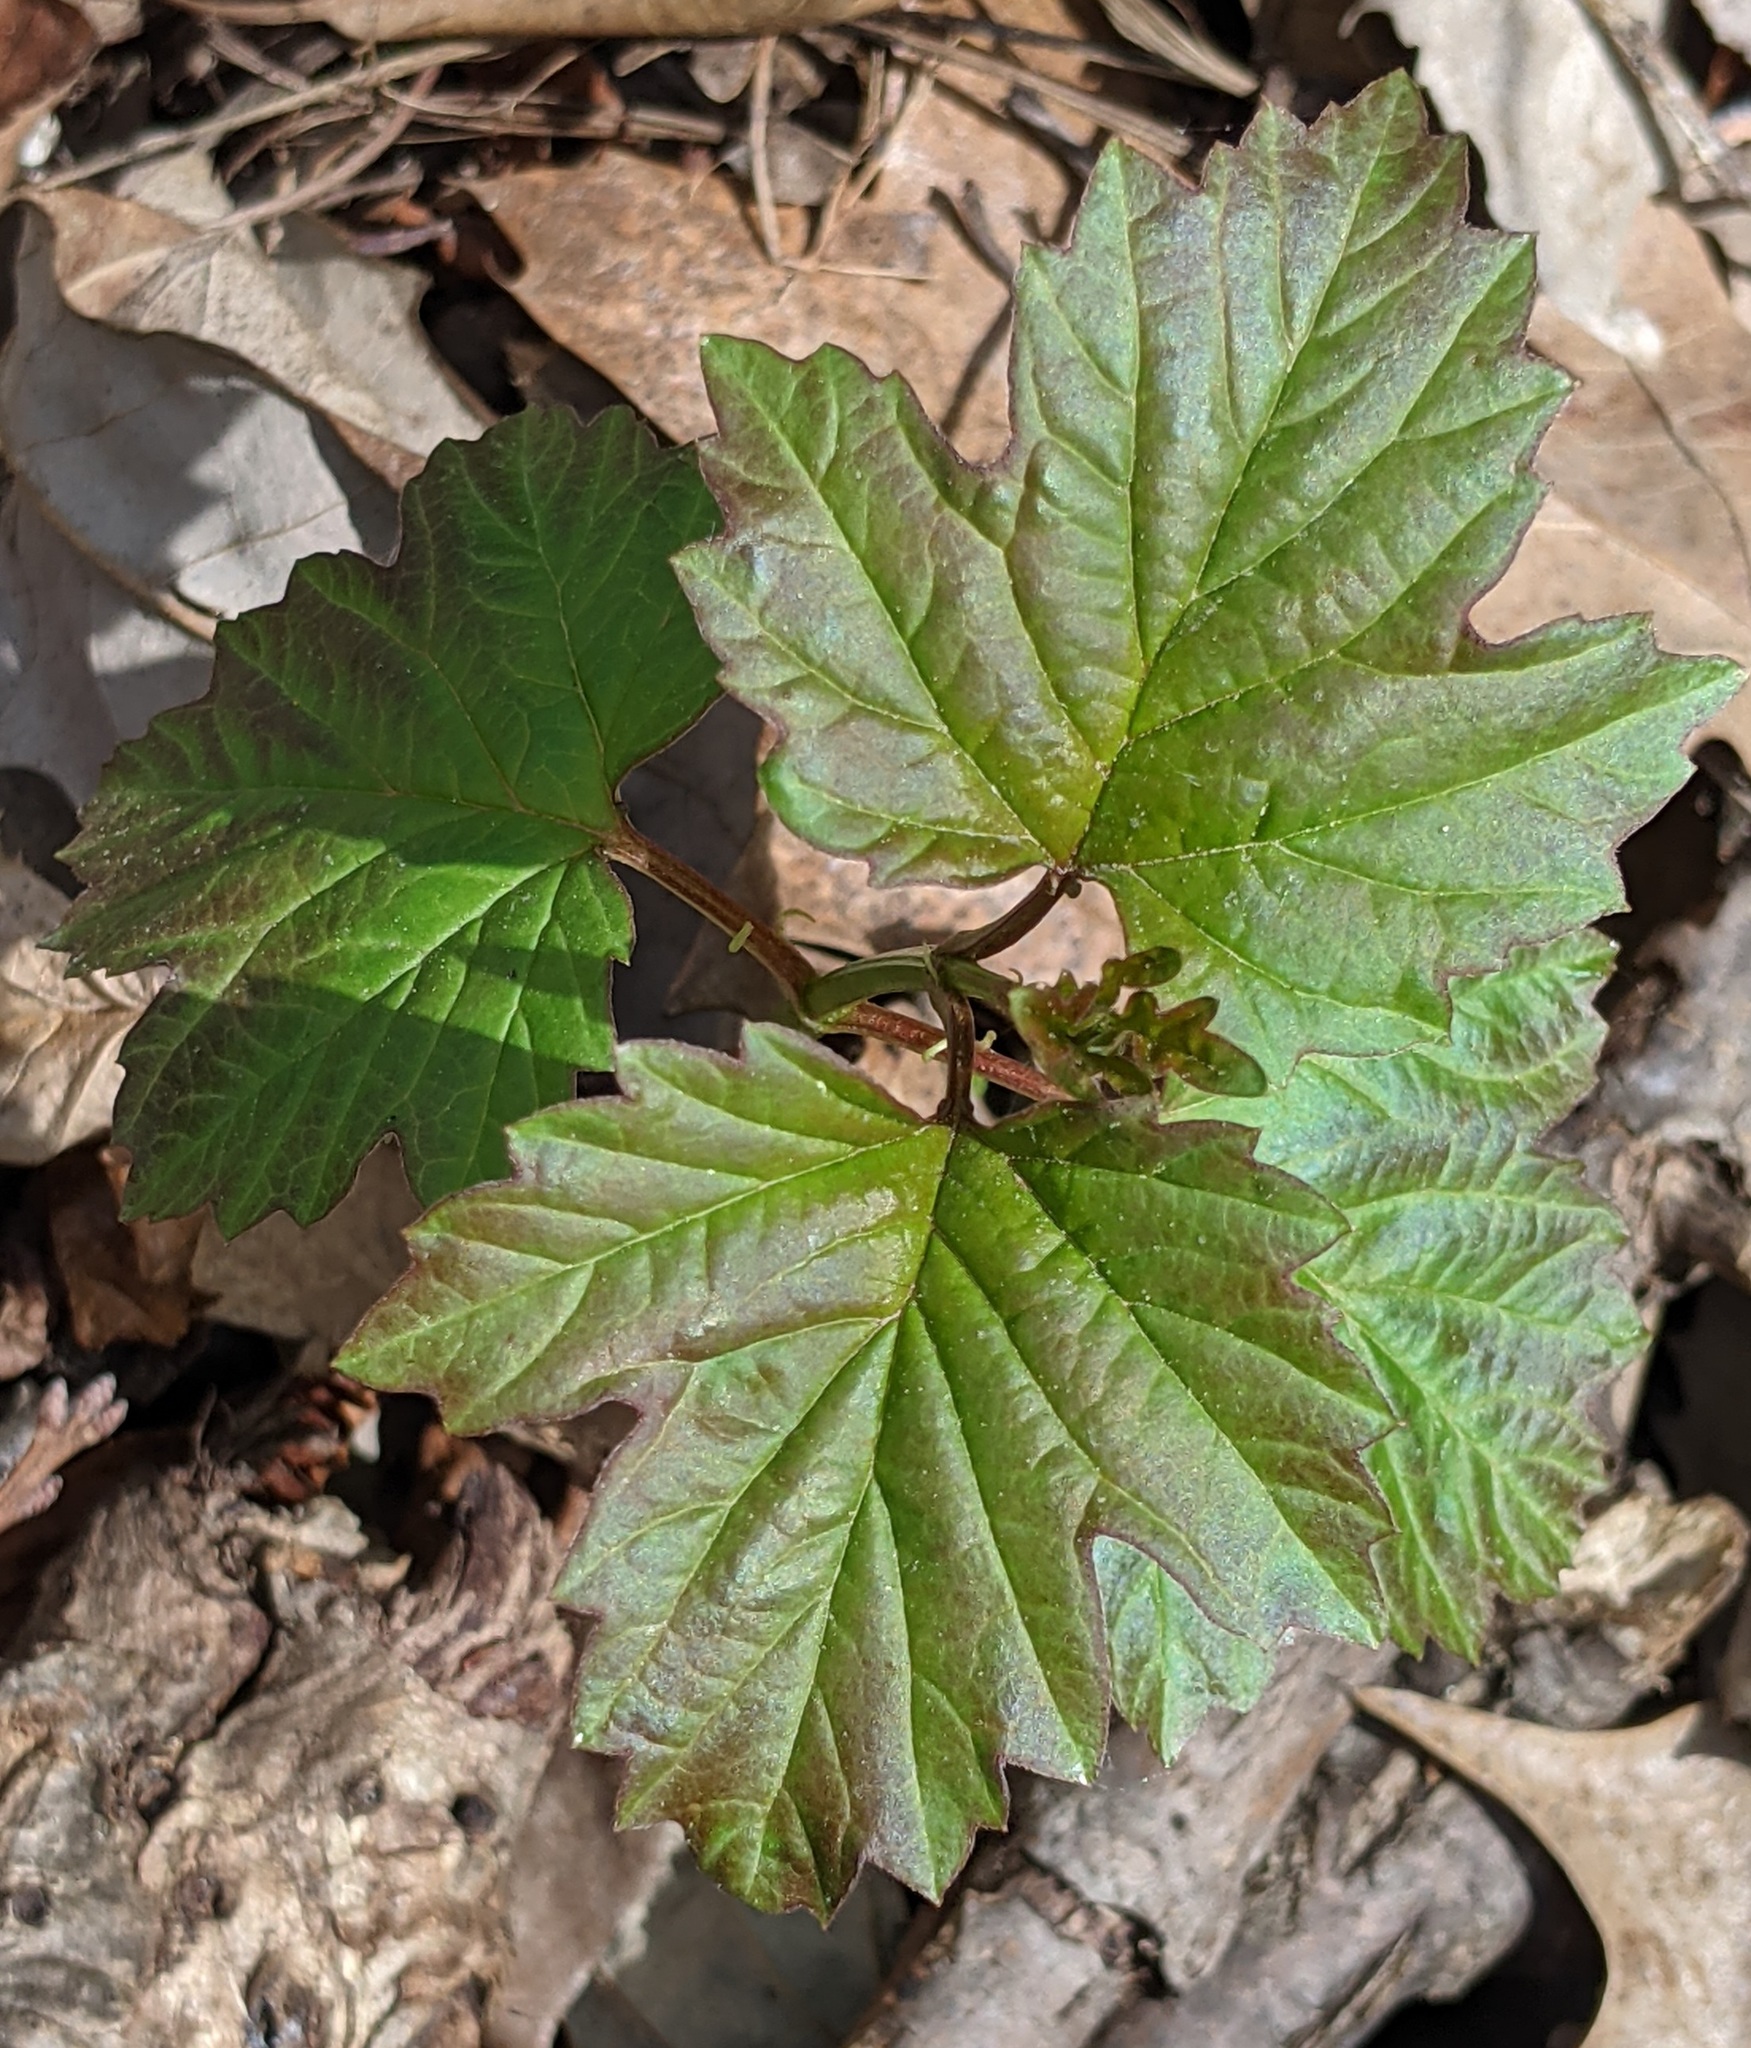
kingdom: Plantae
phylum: Tracheophyta
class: Magnoliopsida
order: Dipsacales
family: Viburnaceae
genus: Viburnum
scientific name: Viburnum opulus
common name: Guelder-rose
